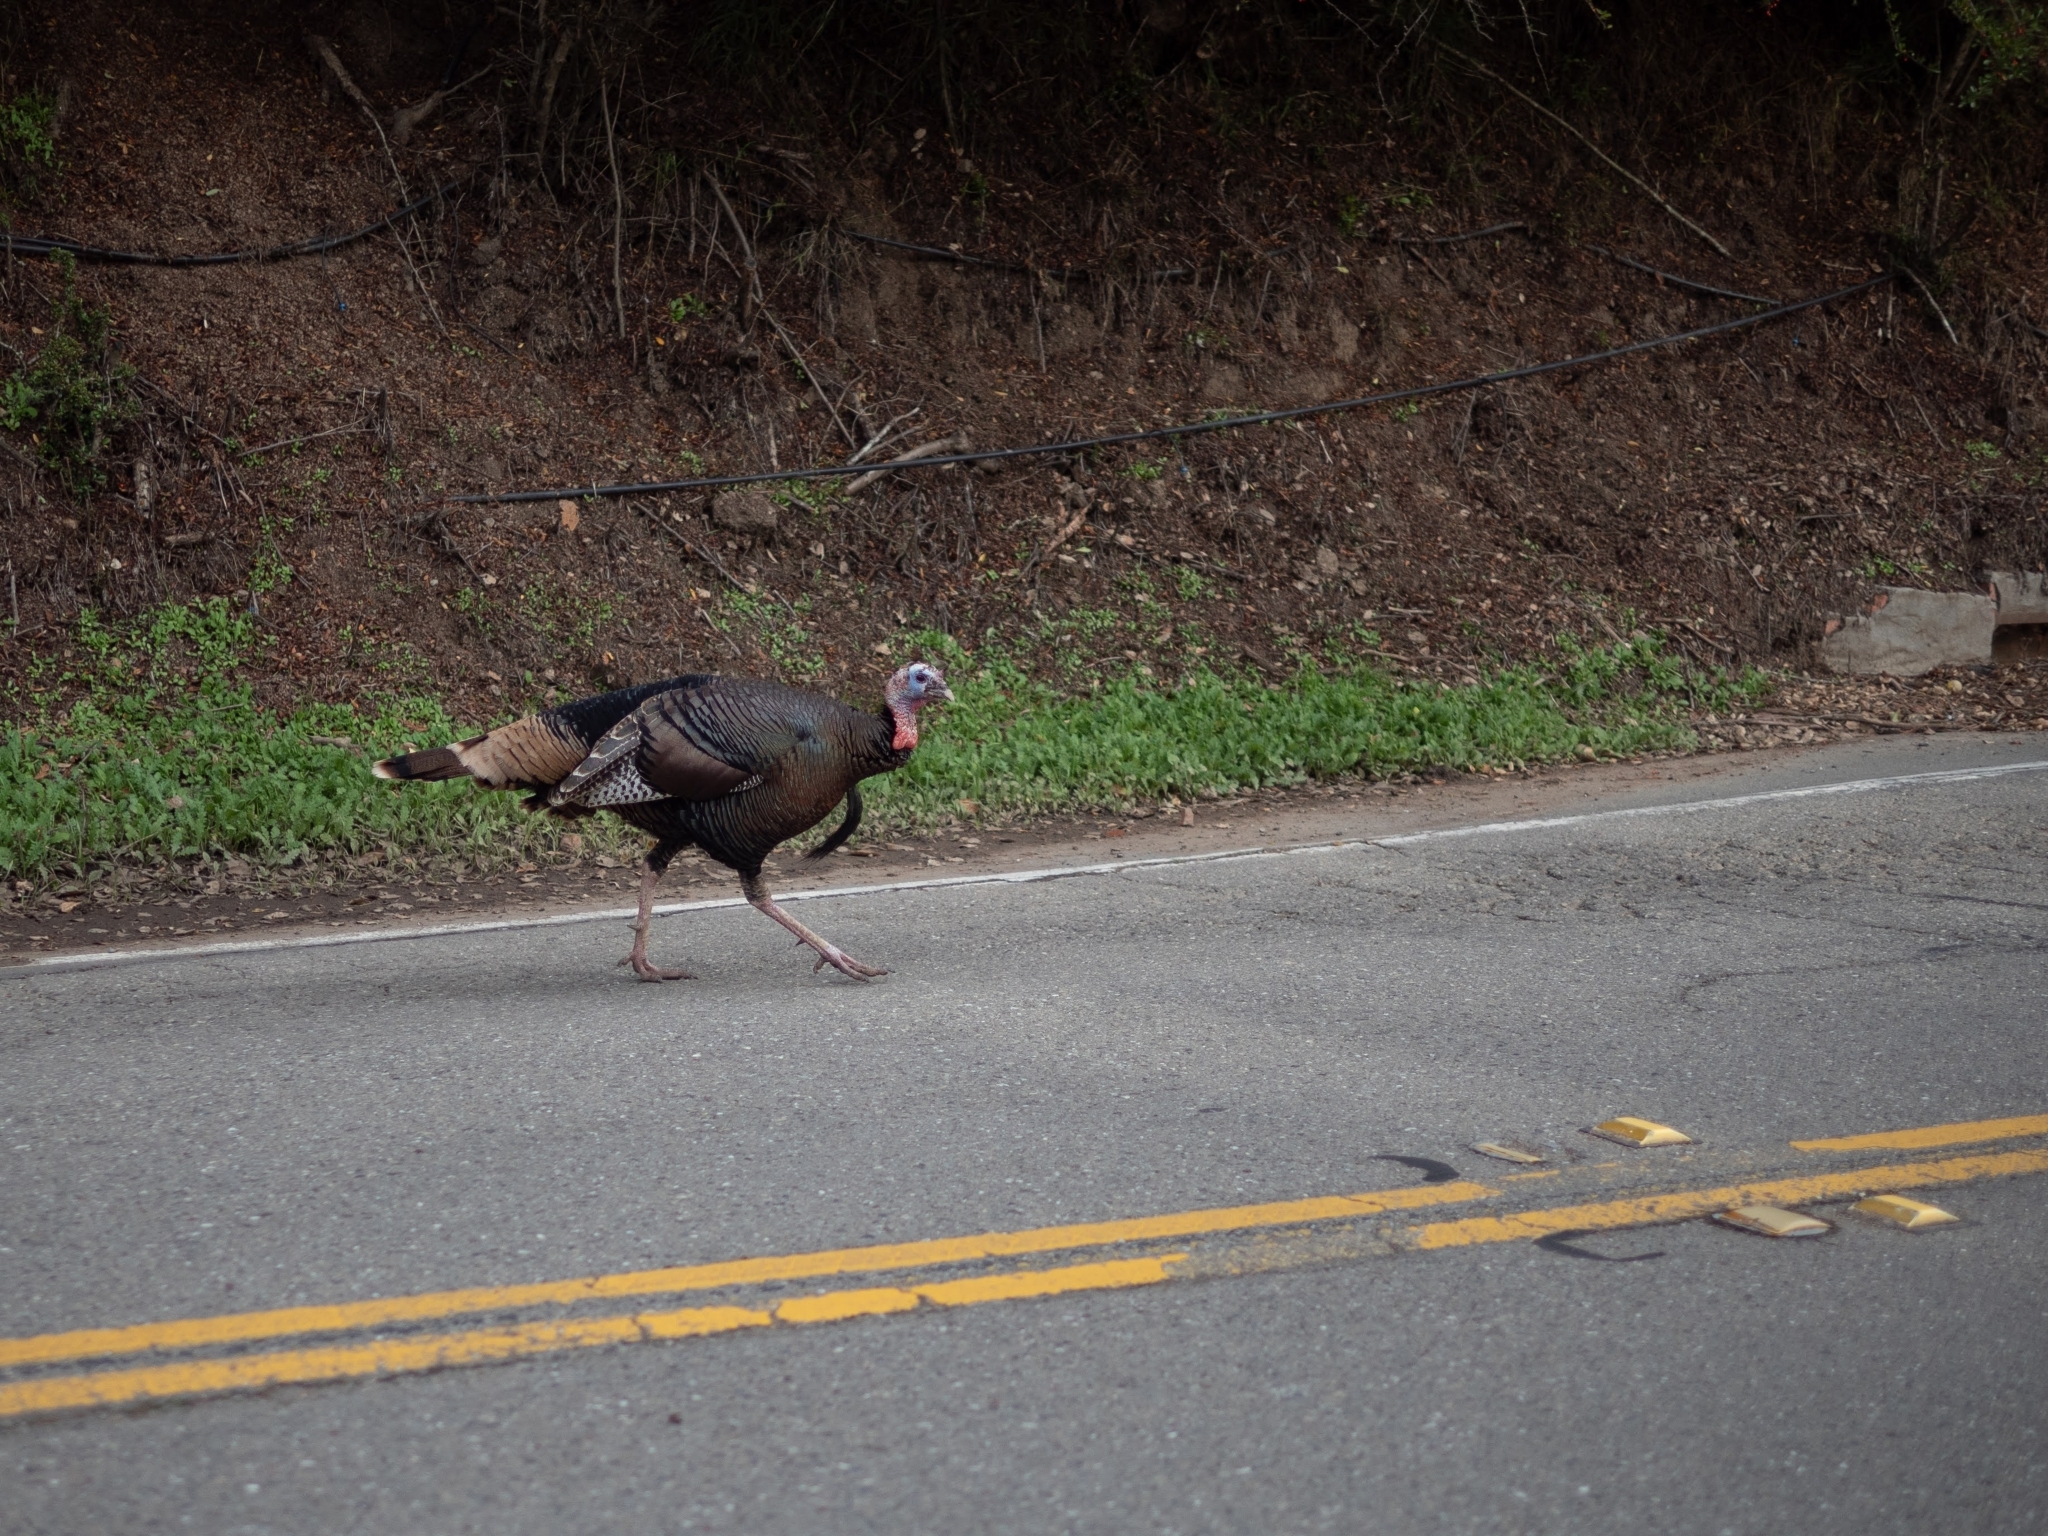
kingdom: Animalia
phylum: Chordata
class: Aves
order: Galliformes
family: Phasianidae
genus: Meleagris
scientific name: Meleagris gallopavo
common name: Wild turkey
